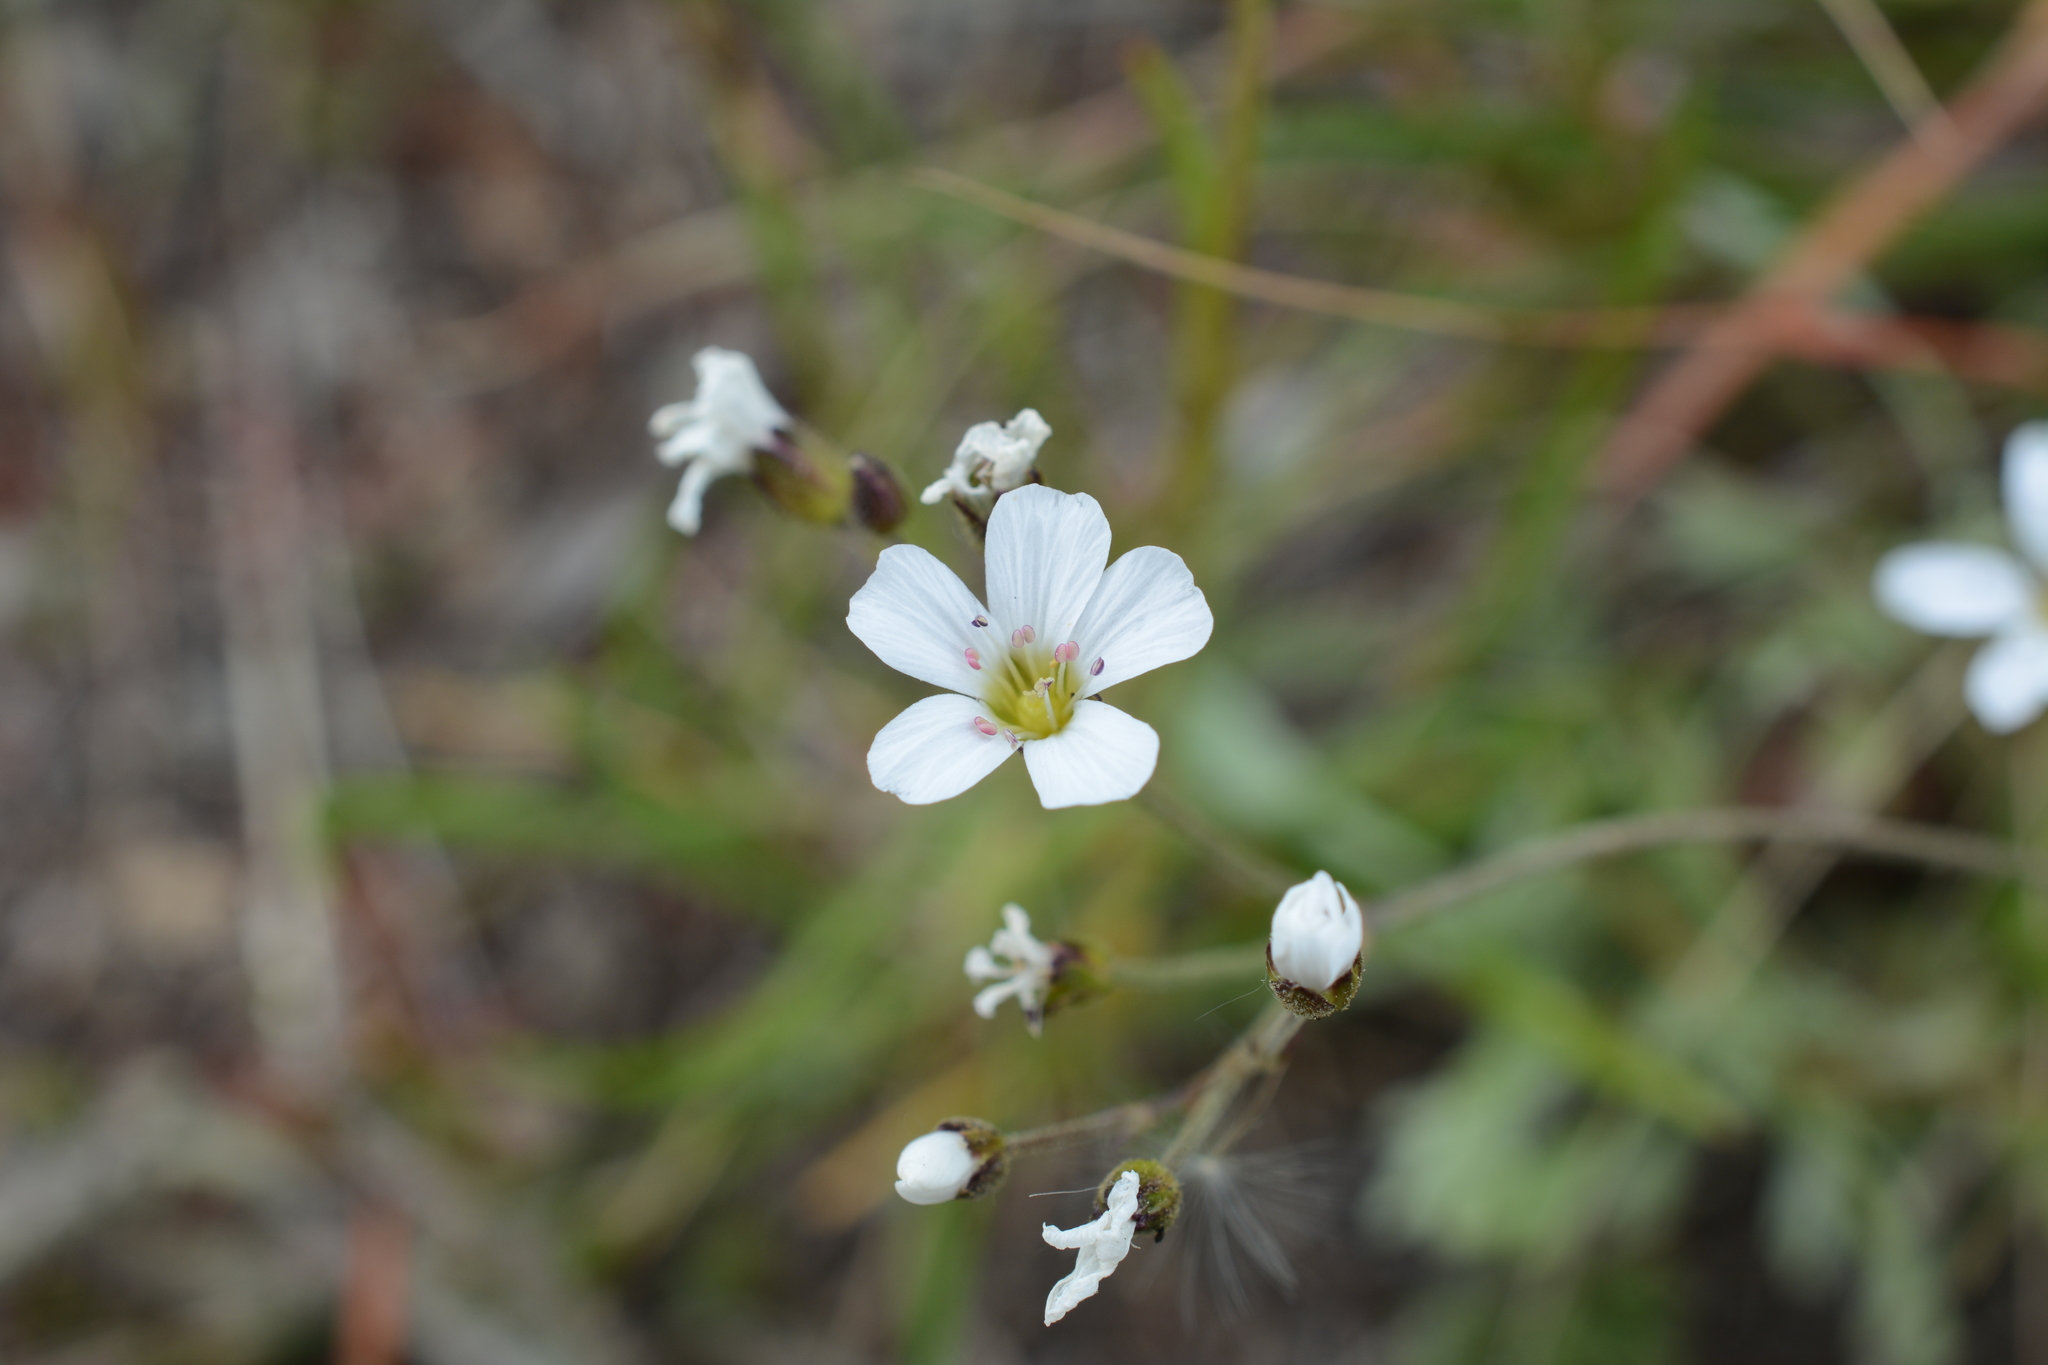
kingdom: Plantae
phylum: Tracheophyta
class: Magnoliopsida
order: Caryophyllales
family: Caryophyllaceae
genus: Eremogone
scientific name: Eremogone capillaris
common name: Slender mountain sandwort
